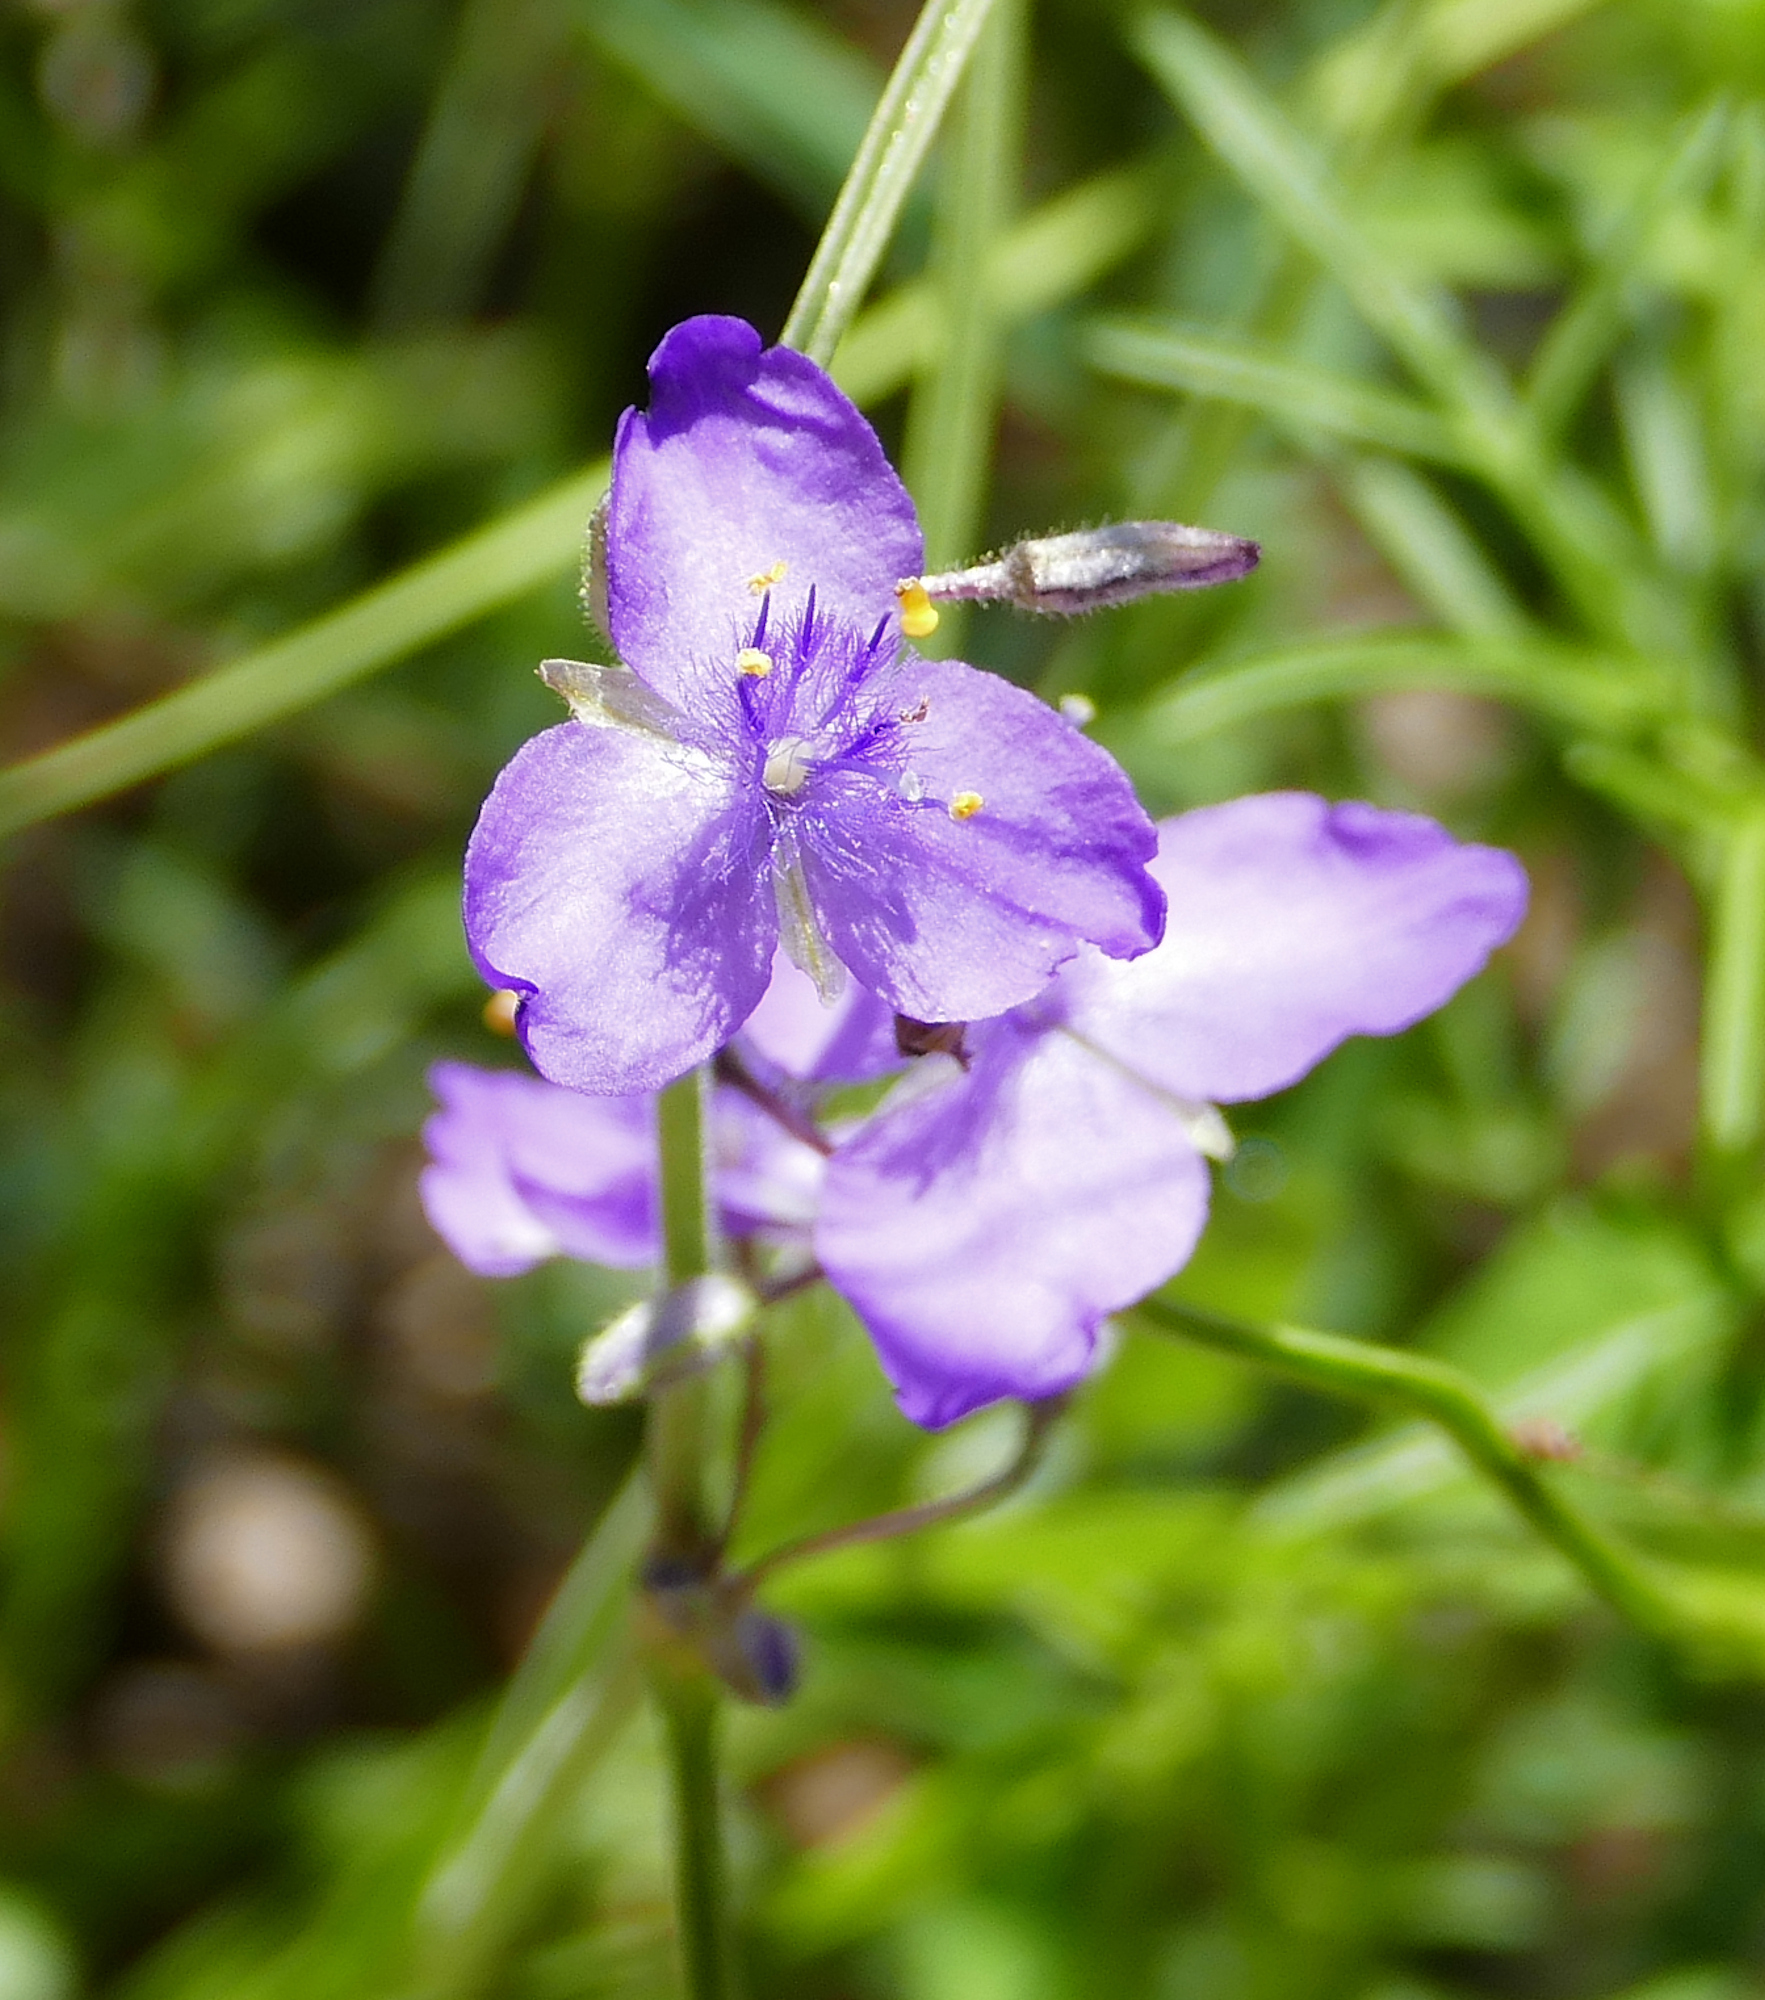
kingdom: Plantae
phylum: Tracheophyta
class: Liliopsida
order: Commelinales
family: Commelinaceae
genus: Tradescantia
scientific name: Tradescantia pinetorum
